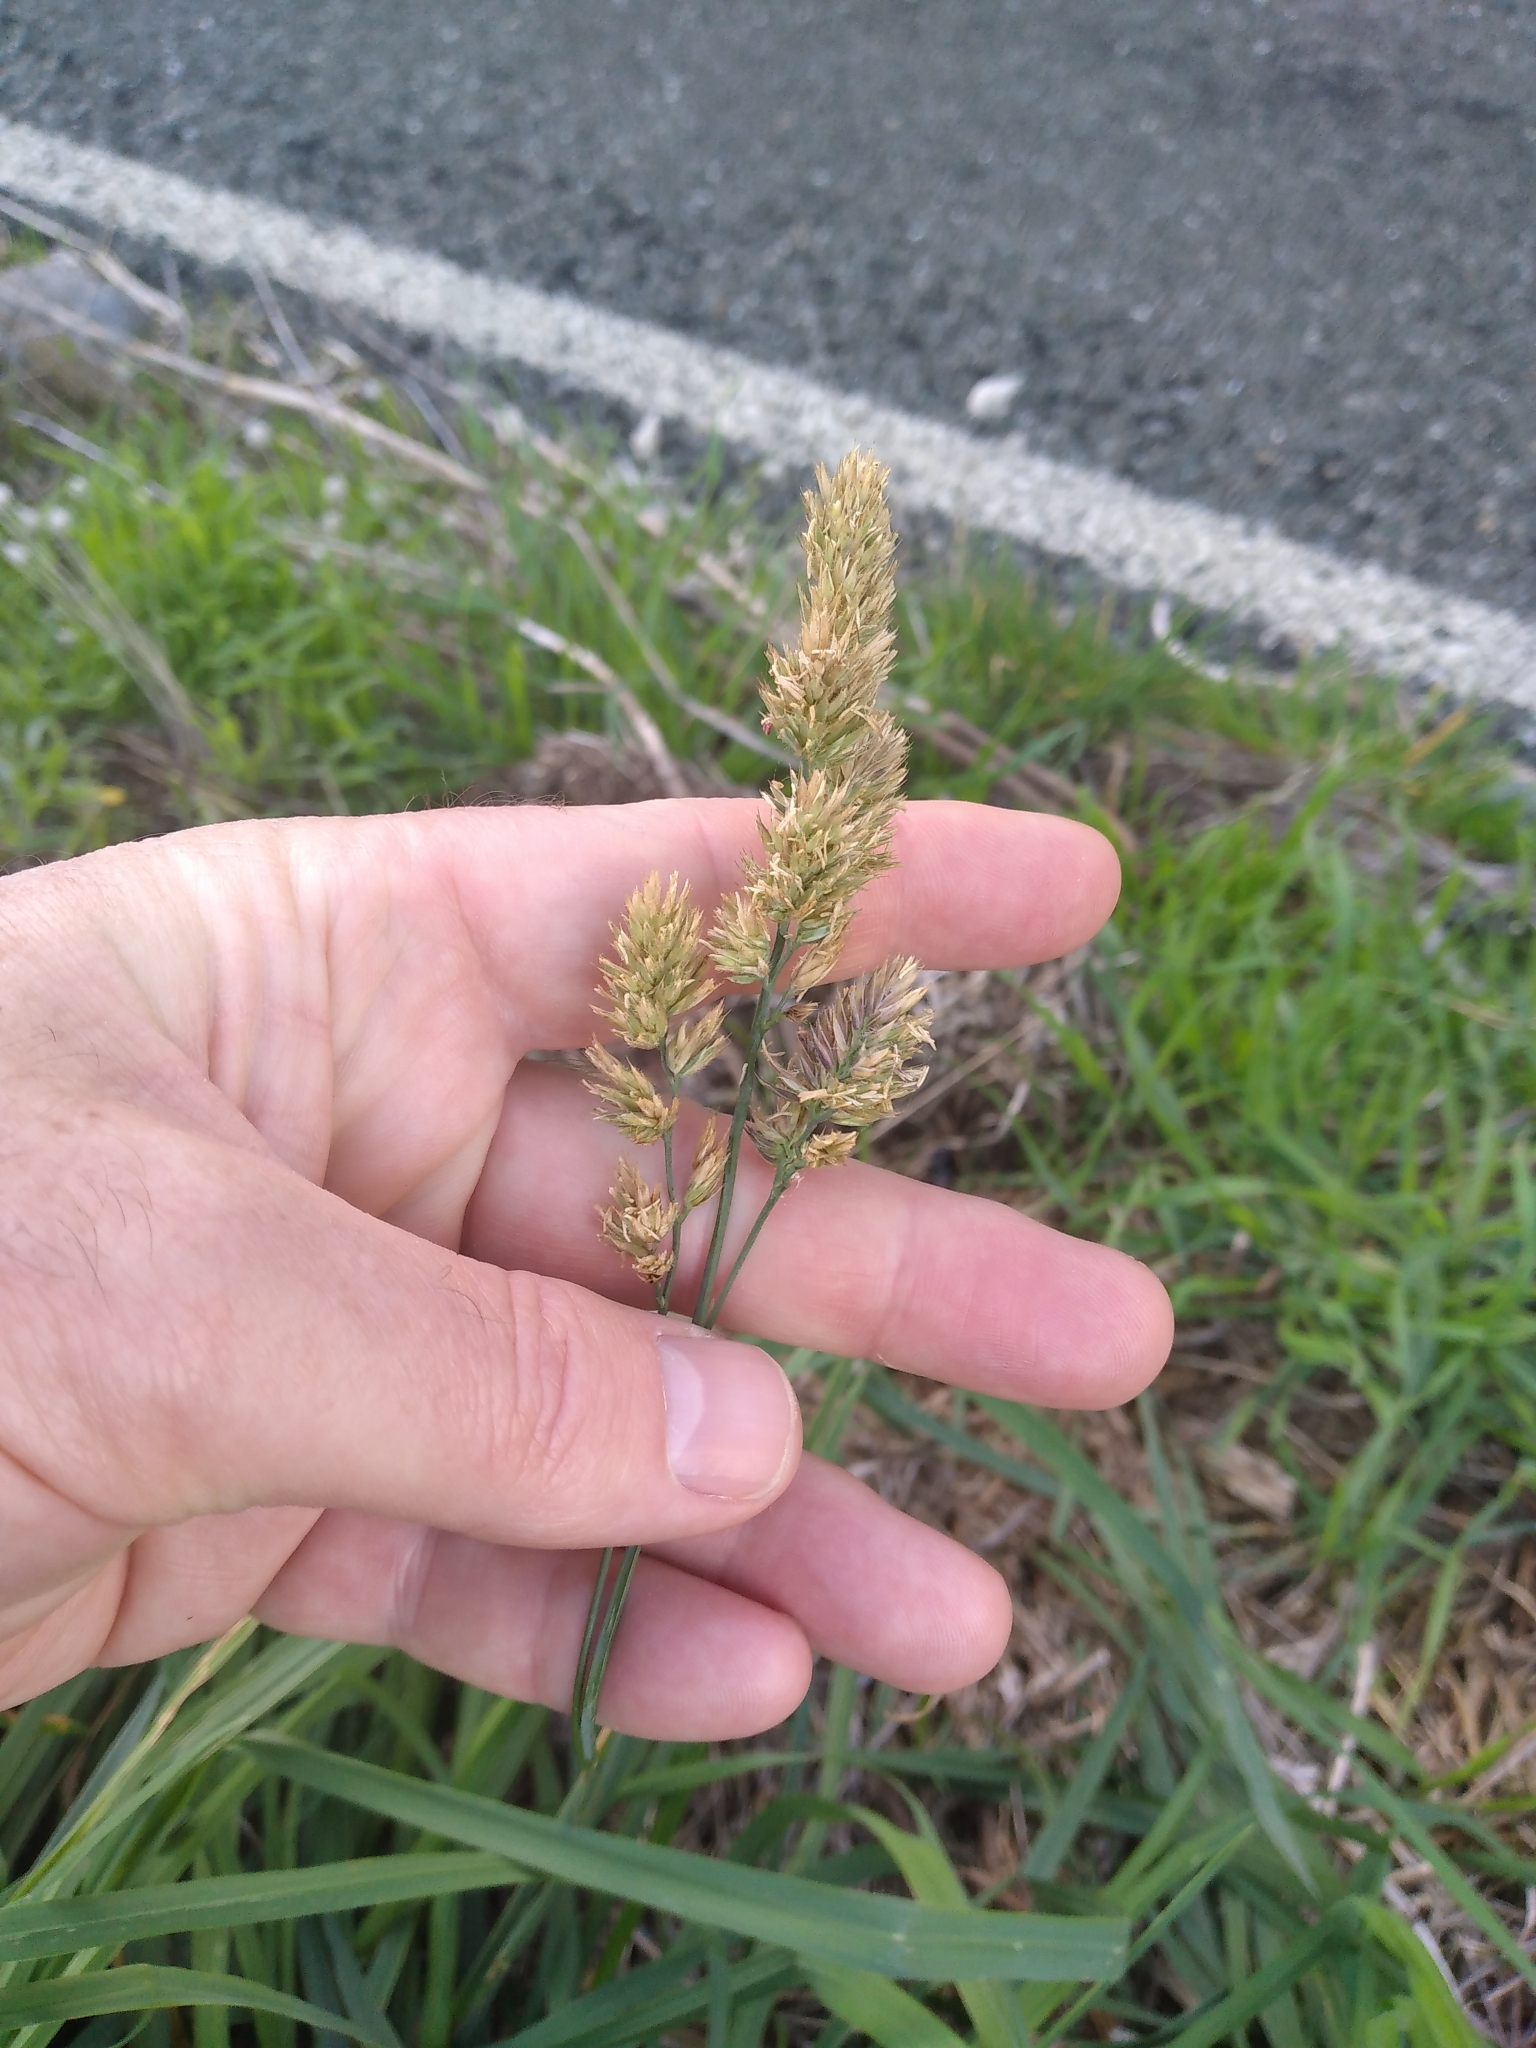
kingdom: Plantae
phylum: Tracheophyta
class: Liliopsida
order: Poales
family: Poaceae
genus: Dactylis
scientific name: Dactylis glomerata
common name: Orchardgrass
